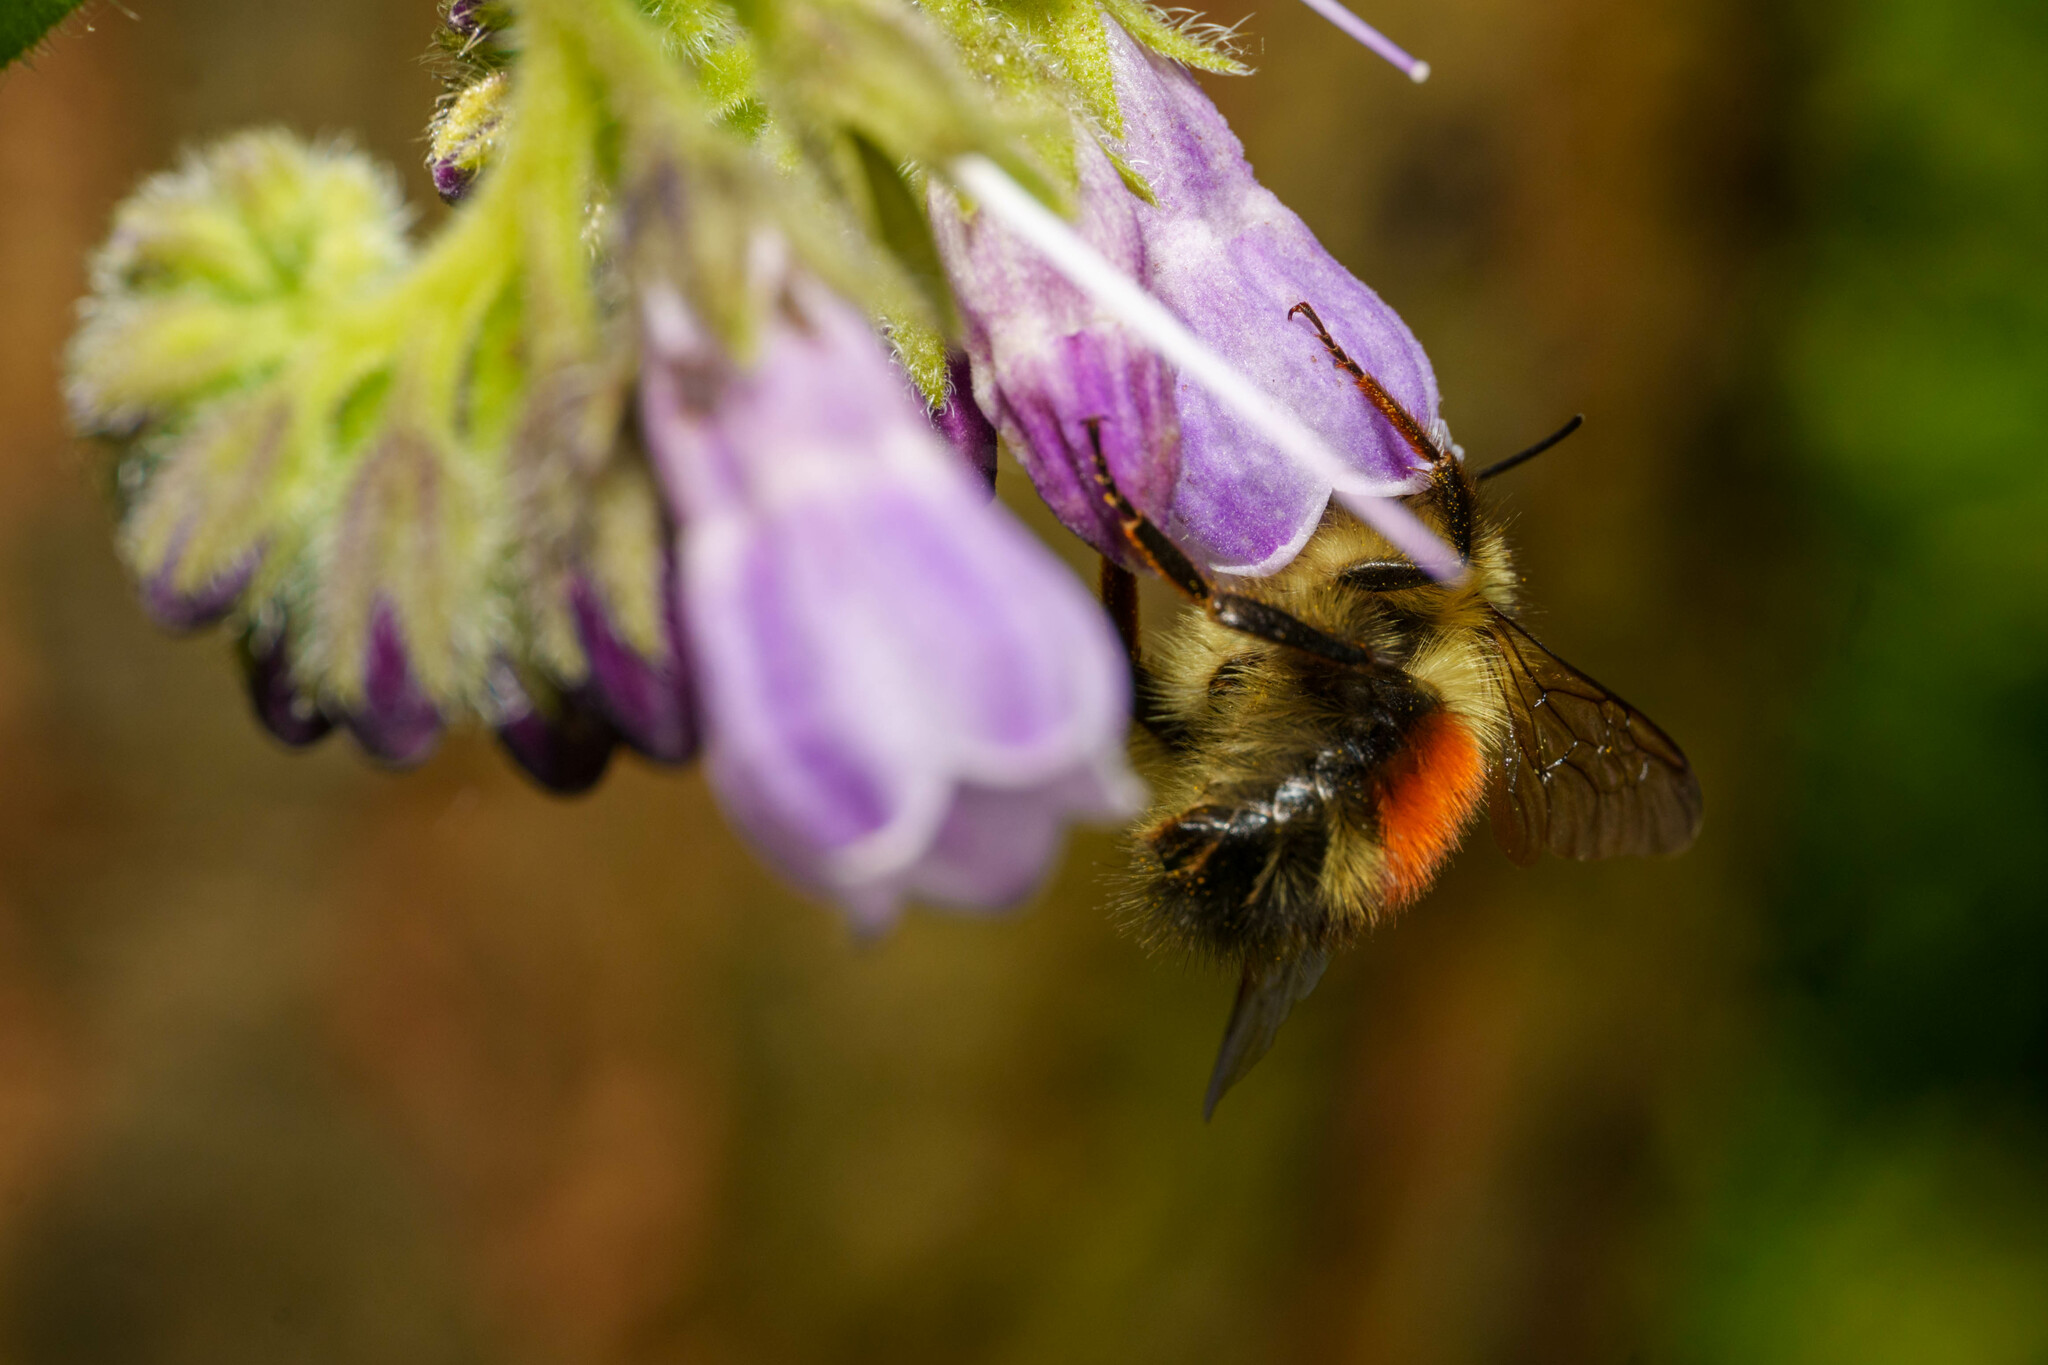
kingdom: Animalia
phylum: Arthropoda
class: Insecta
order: Hymenoptera
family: Apidae
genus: Bombus
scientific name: Bombus melanopygus
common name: Black tail bumble bee
